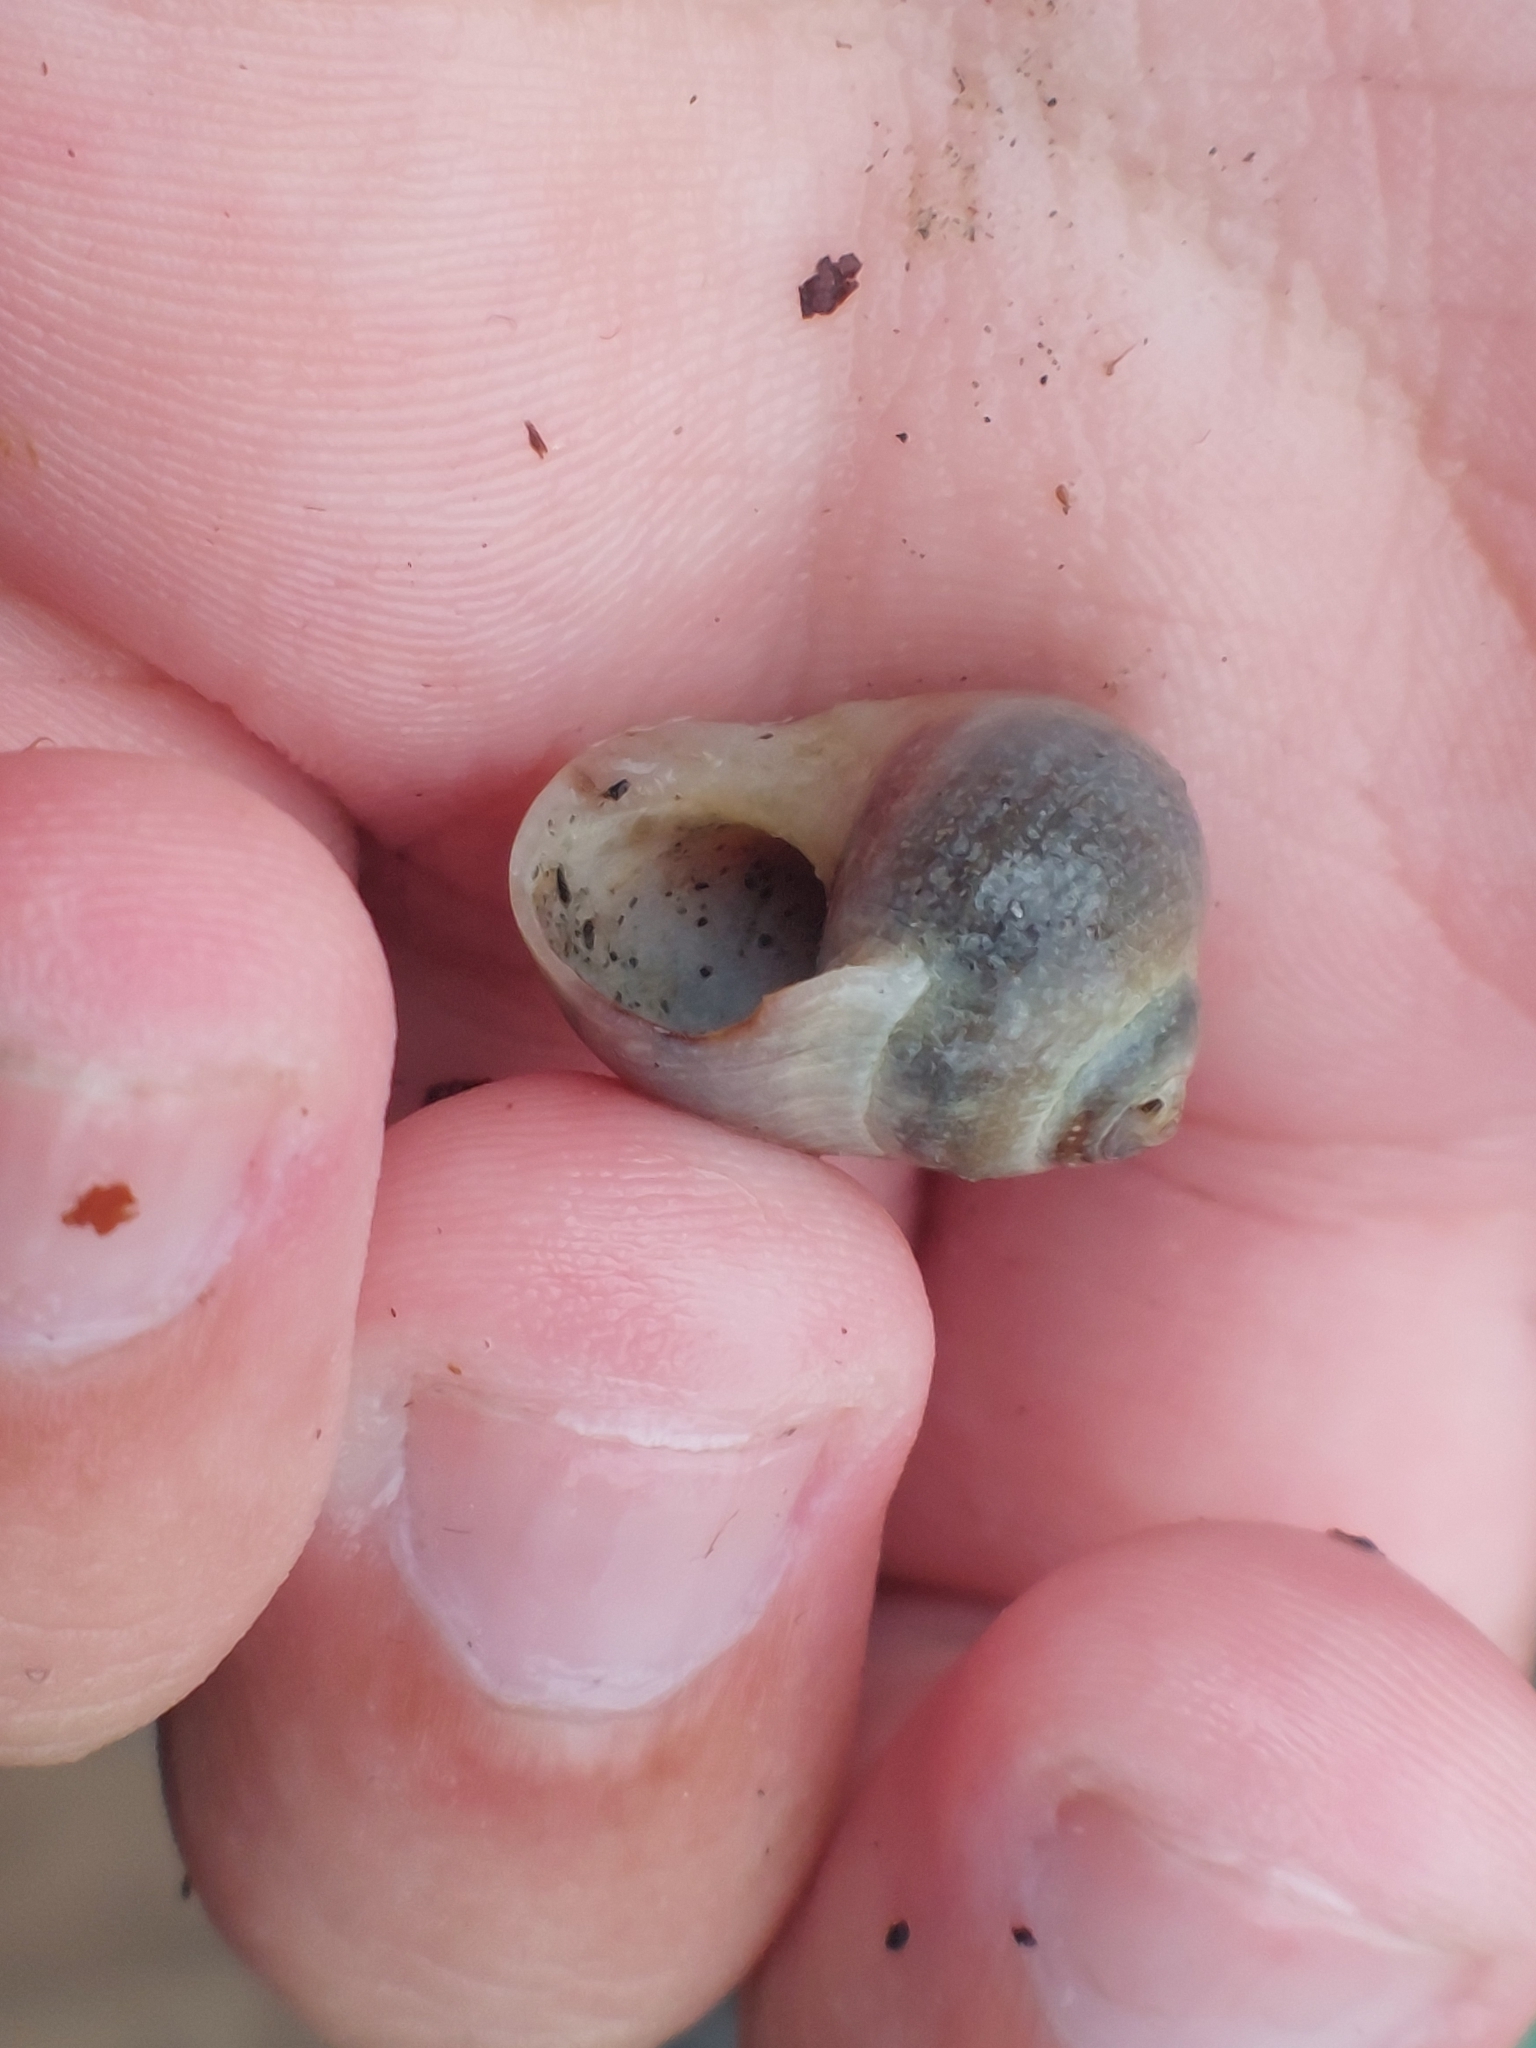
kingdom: Animalia
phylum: Mollusca
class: Gastropoda
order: Littorinimorpha
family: Littorinidae
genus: Littorina
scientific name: Littorina littorea
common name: Common periwinkle
